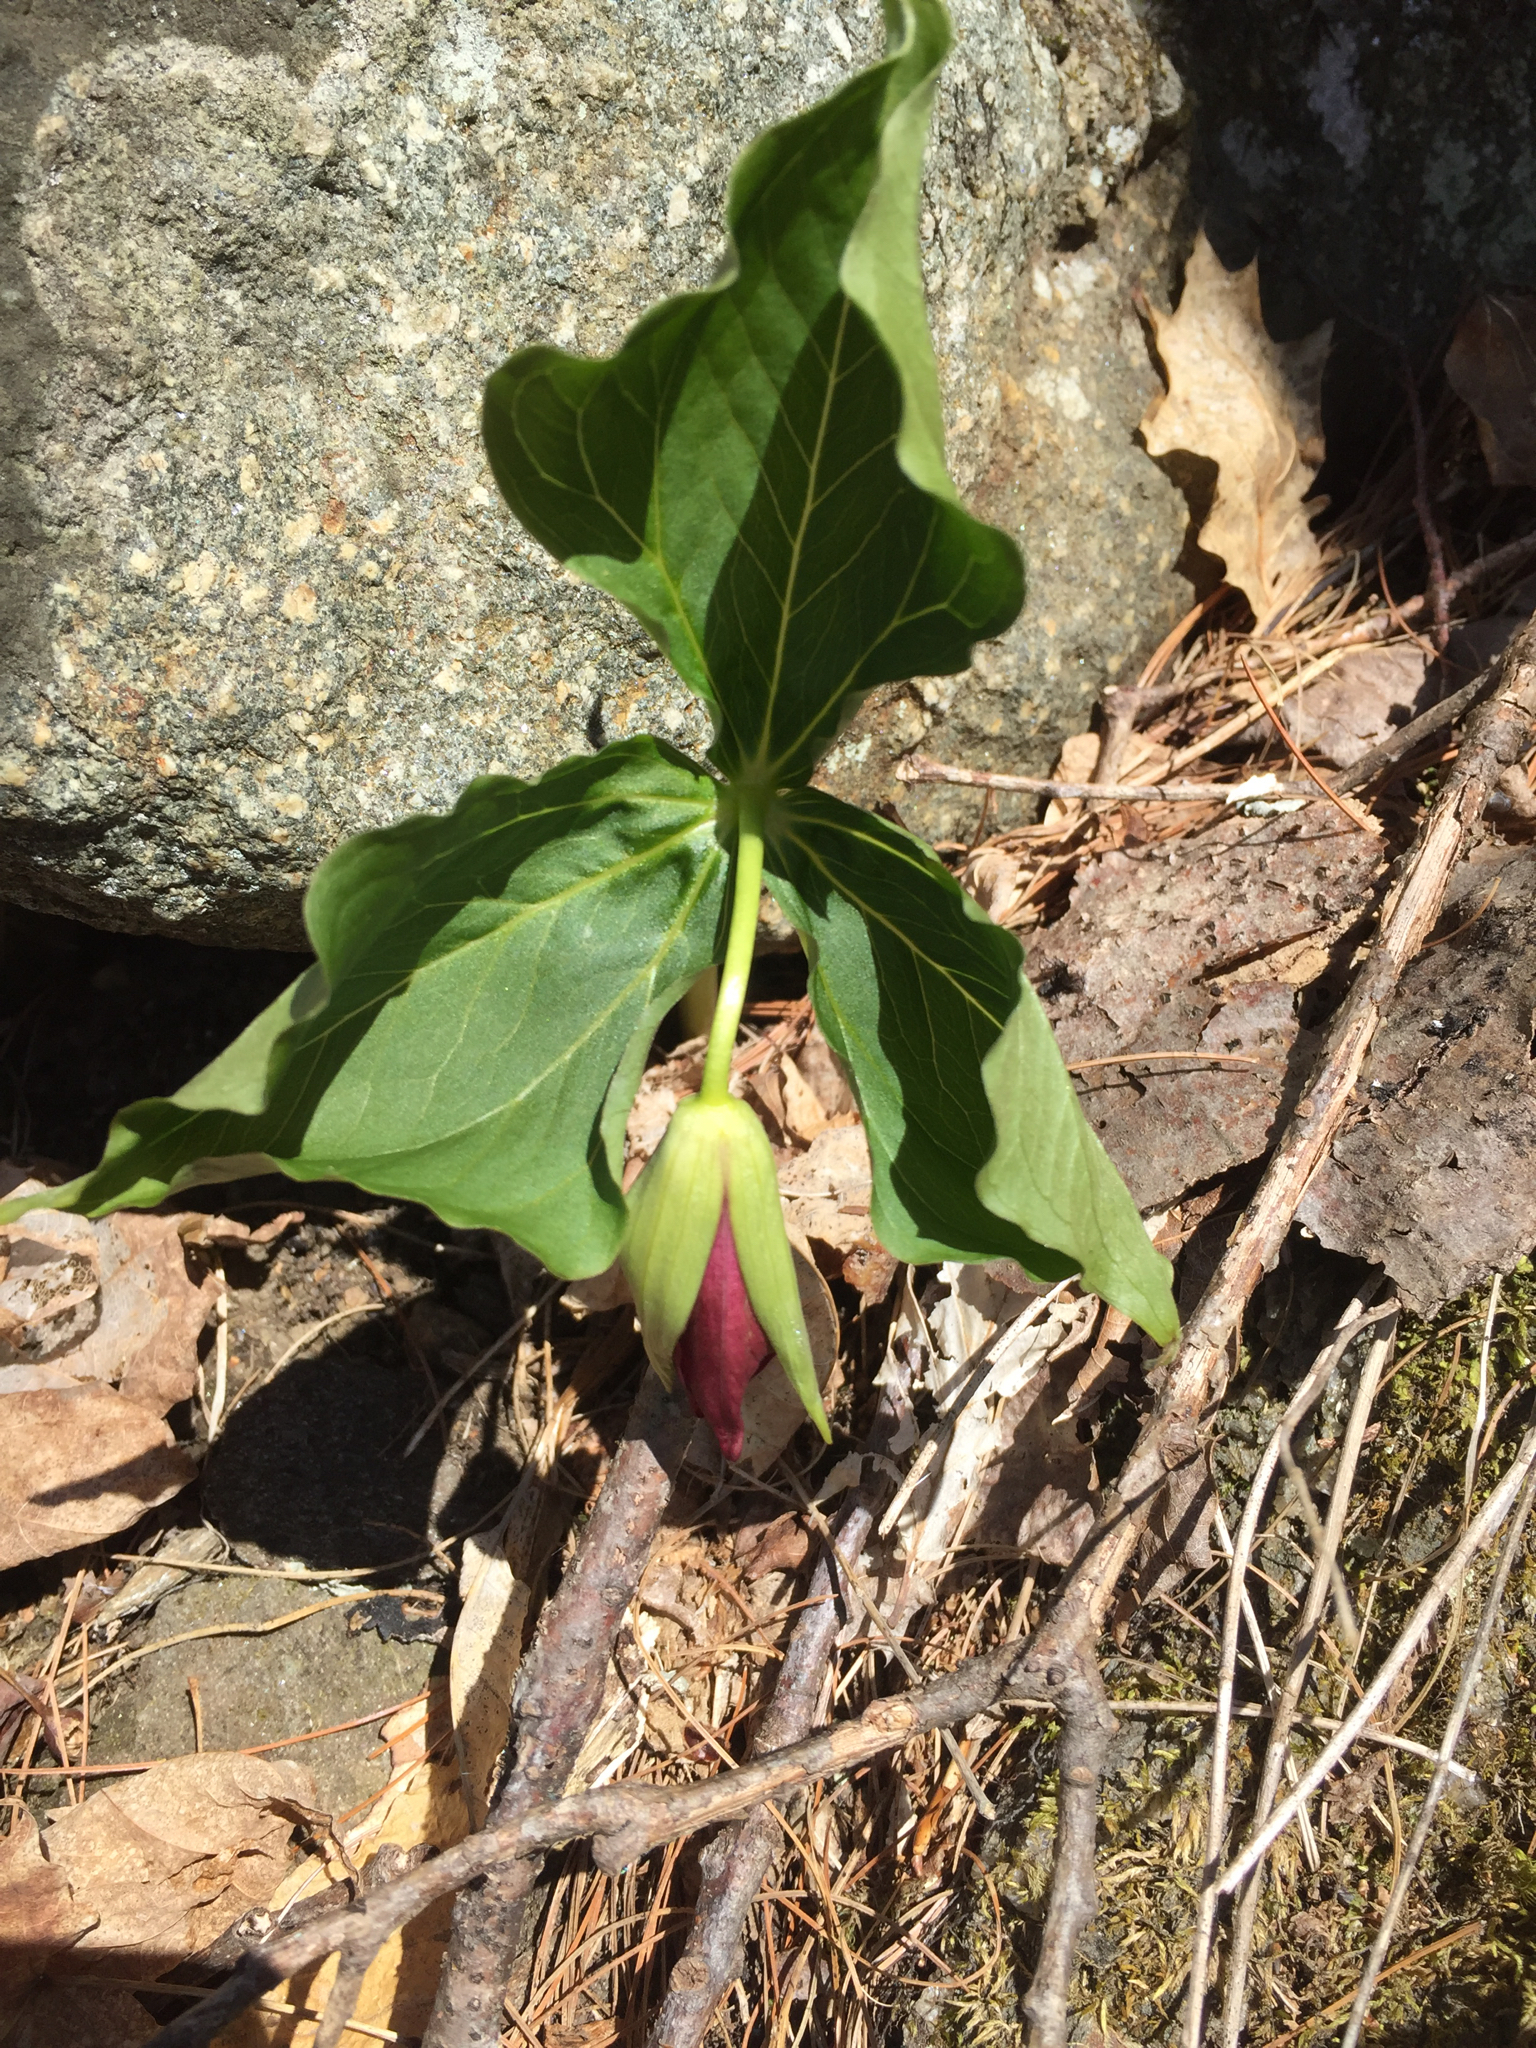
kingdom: Plantae
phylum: Tracheophyta
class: Liliopsida
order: Liliales
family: Melanthiaceae
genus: Trillium
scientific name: Trillium erectum
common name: Purple trillium
